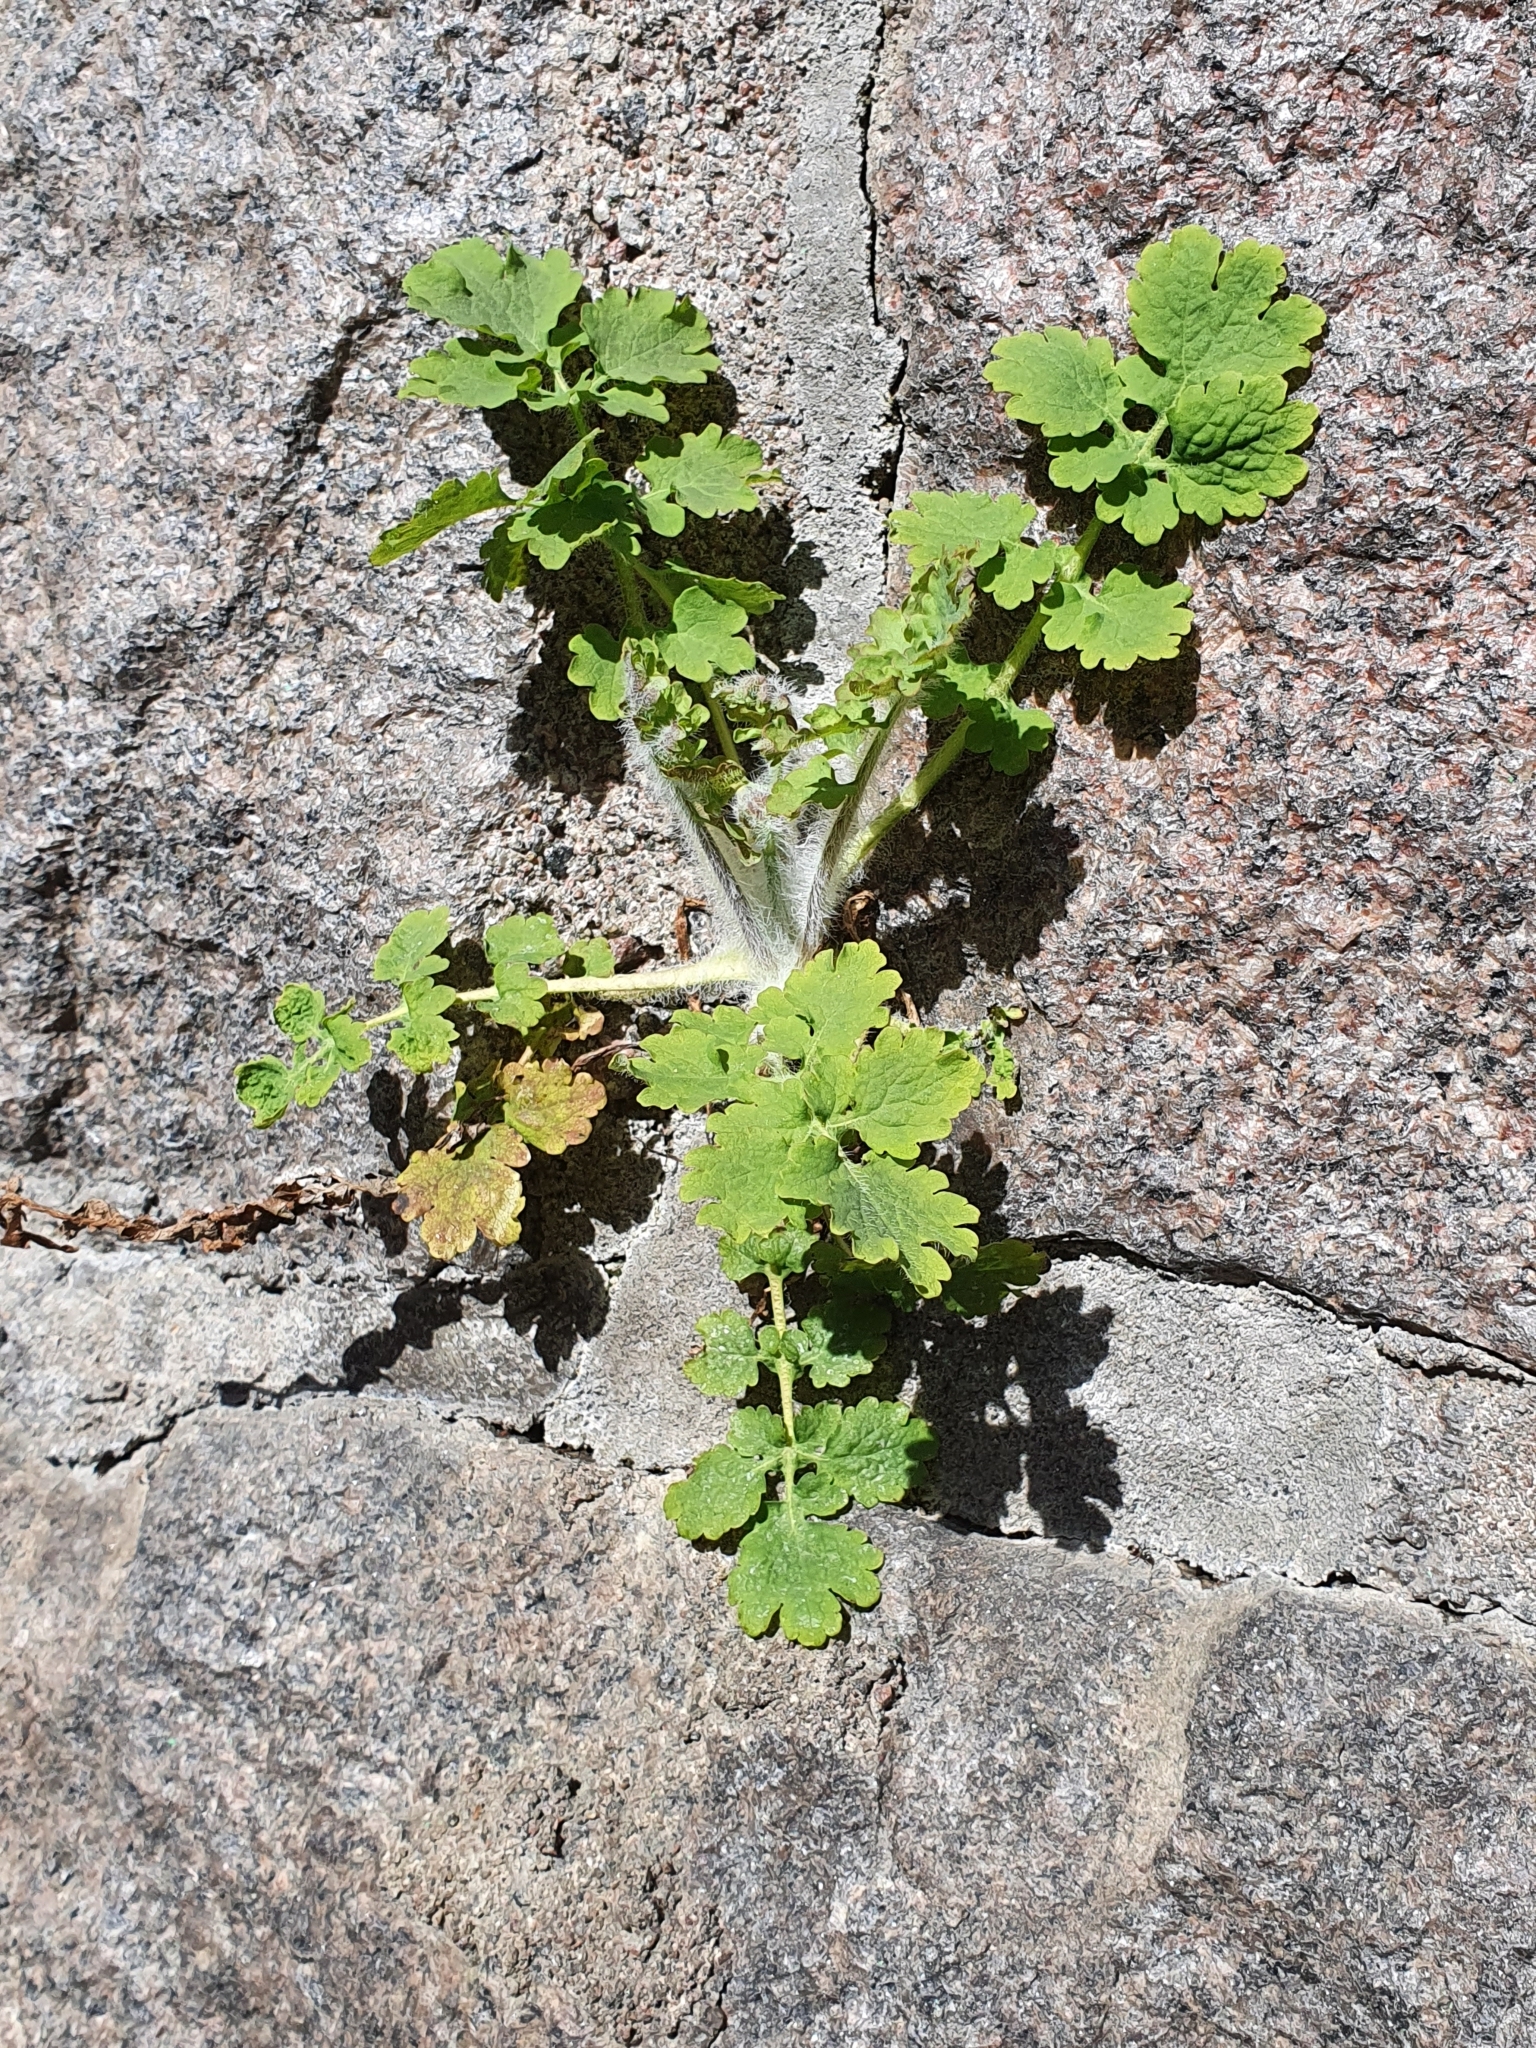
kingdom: Plantae
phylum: Tracheophyta
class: Magnoliopsida
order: Ranunculales
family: Papaveraceae
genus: Chelidonium
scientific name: Chelidonium majus
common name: Greater celandine
